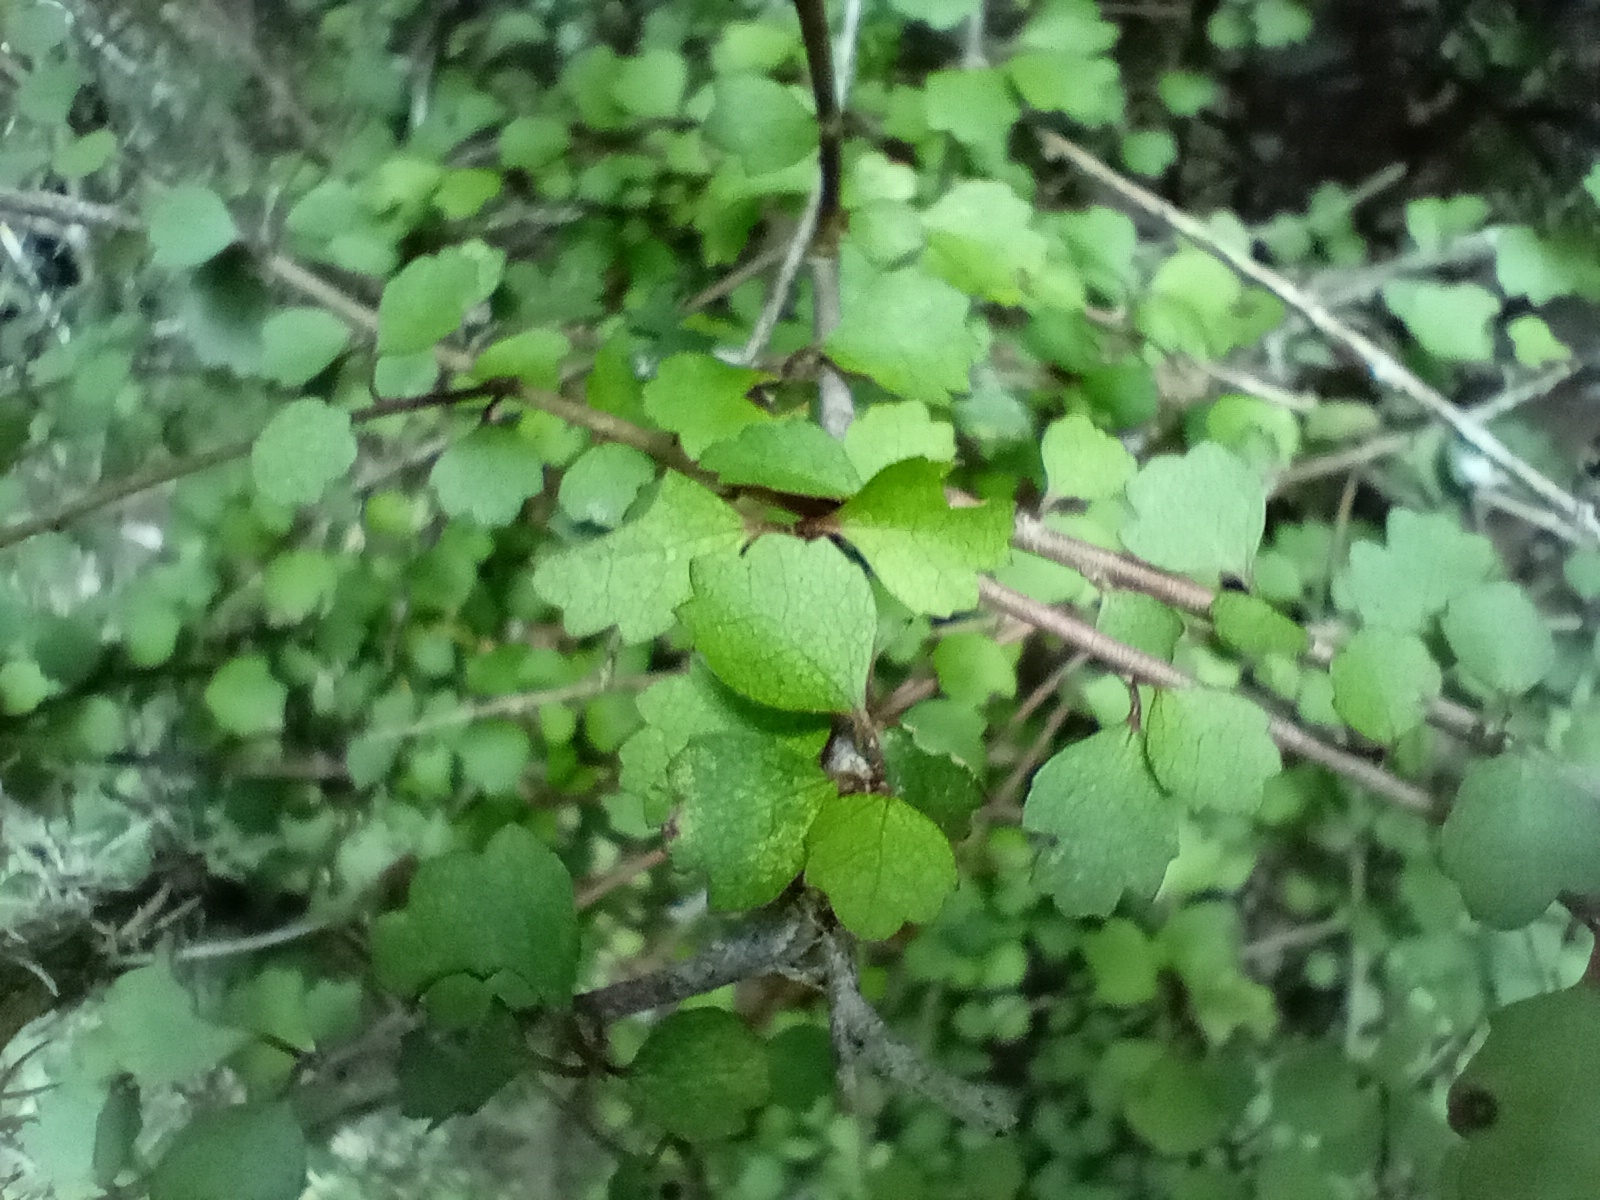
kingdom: Plantae
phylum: Tracheophyta
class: Magnoliopsida
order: Malvales
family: Malvaceae
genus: Hoheria
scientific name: Hoheria angustifolia
